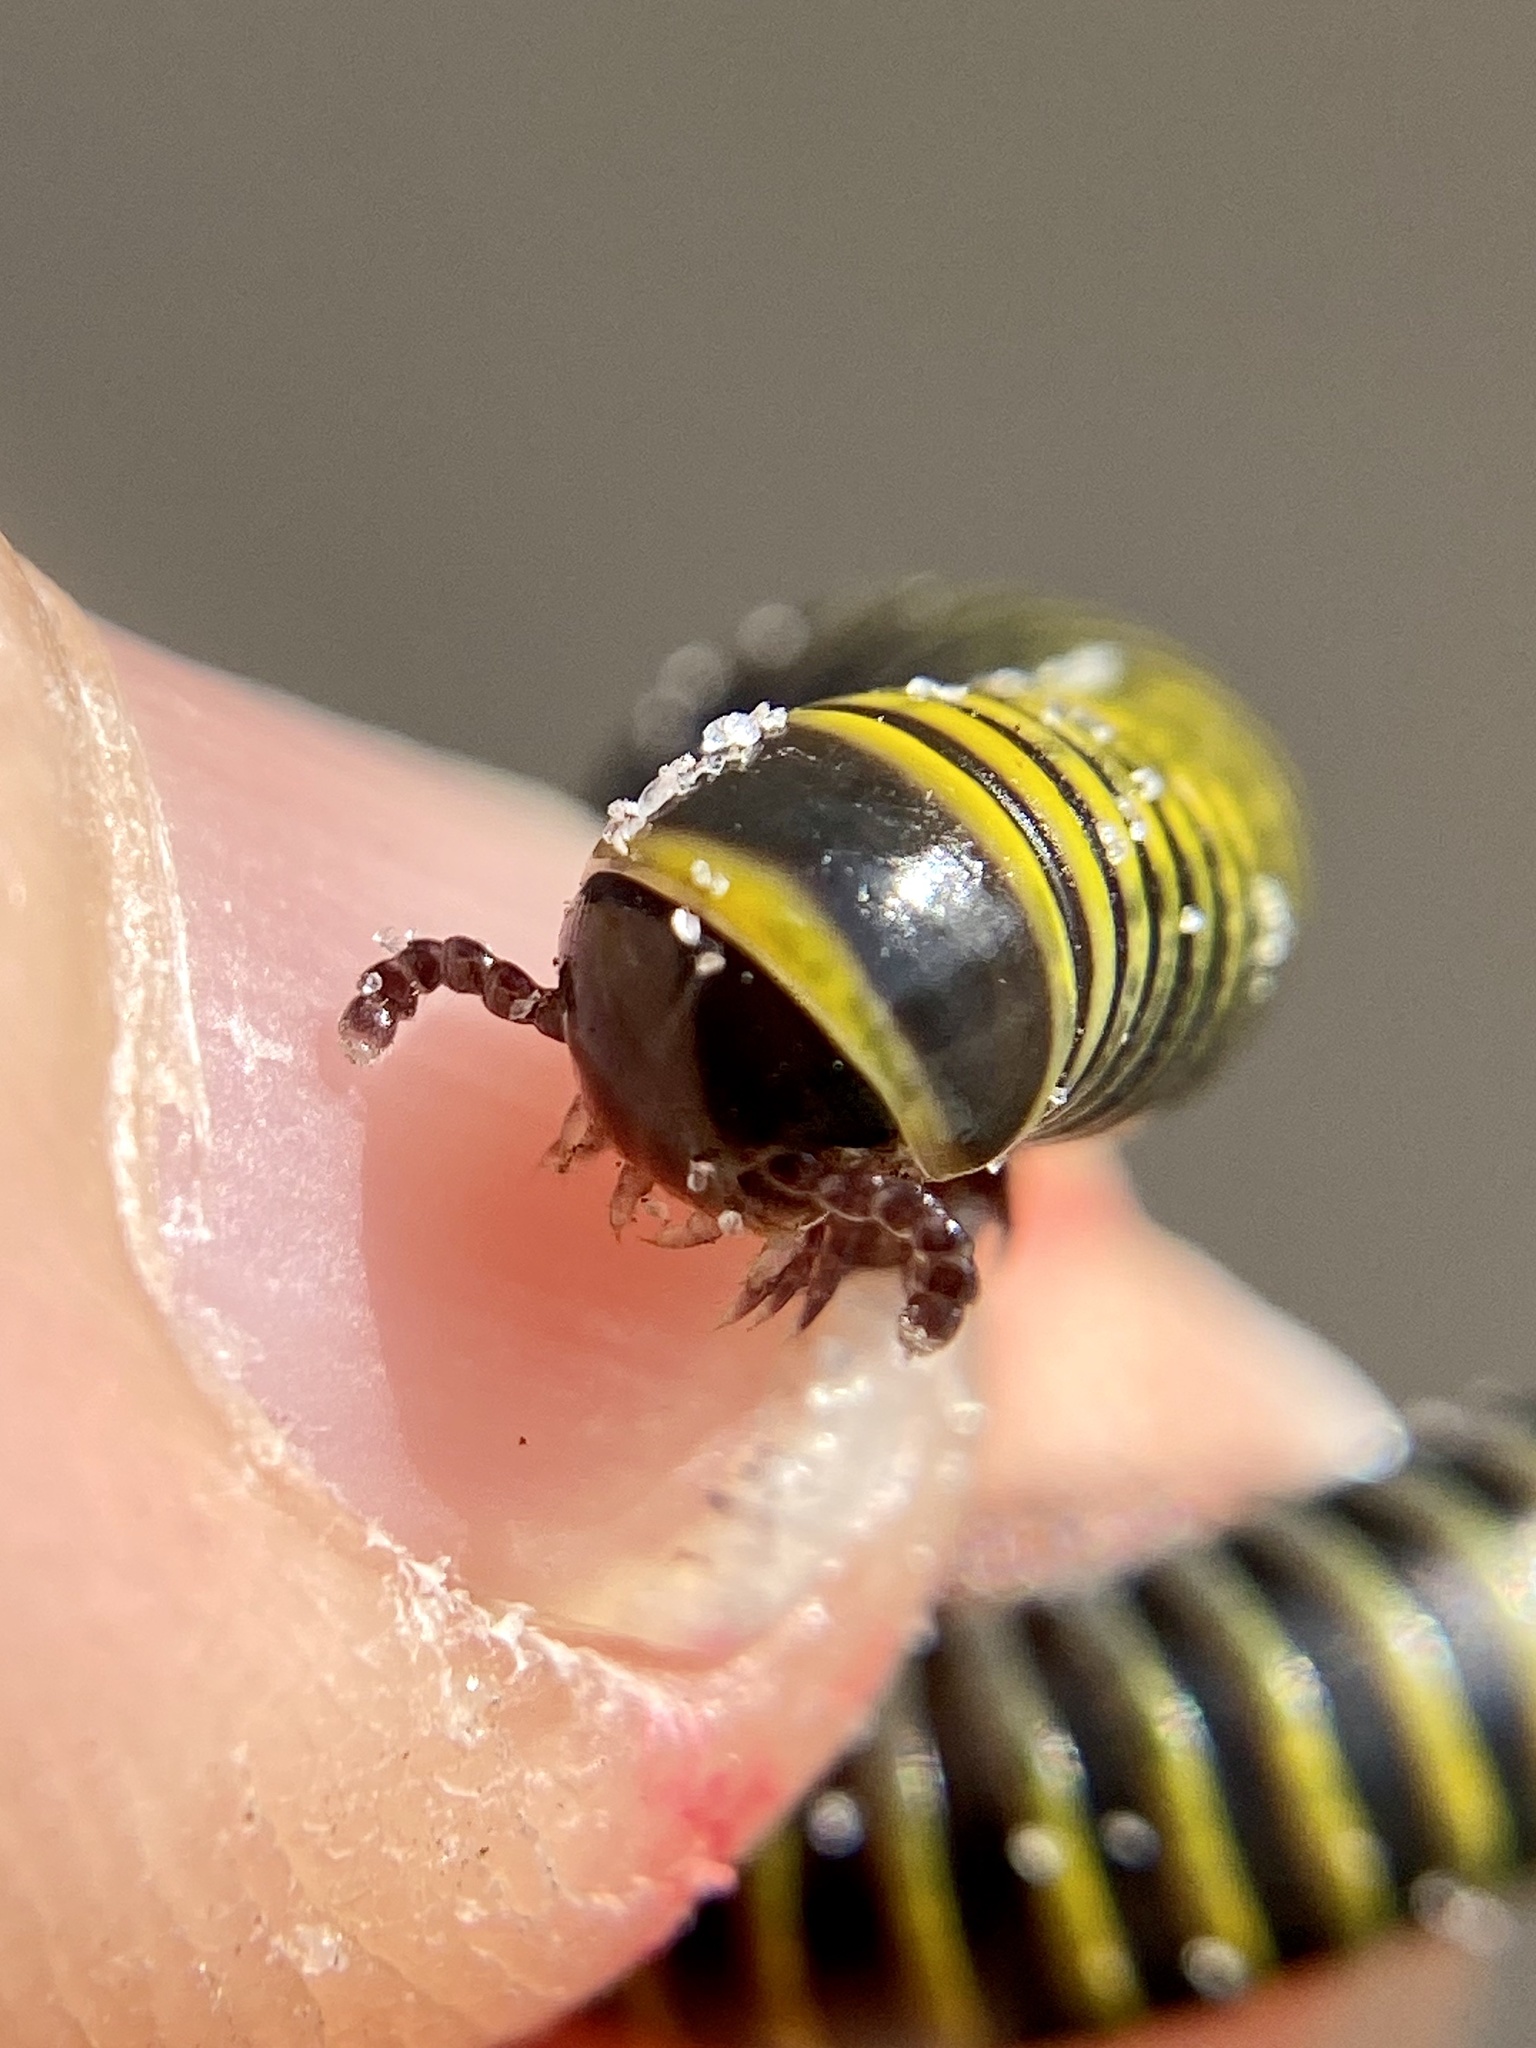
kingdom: Animalia
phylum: Arthropoda
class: Diplopoda
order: Spirobolida
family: Rhinocricidae
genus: Anadenobolus
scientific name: Anadenobolus monilicornis
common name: Caribbean millipede
